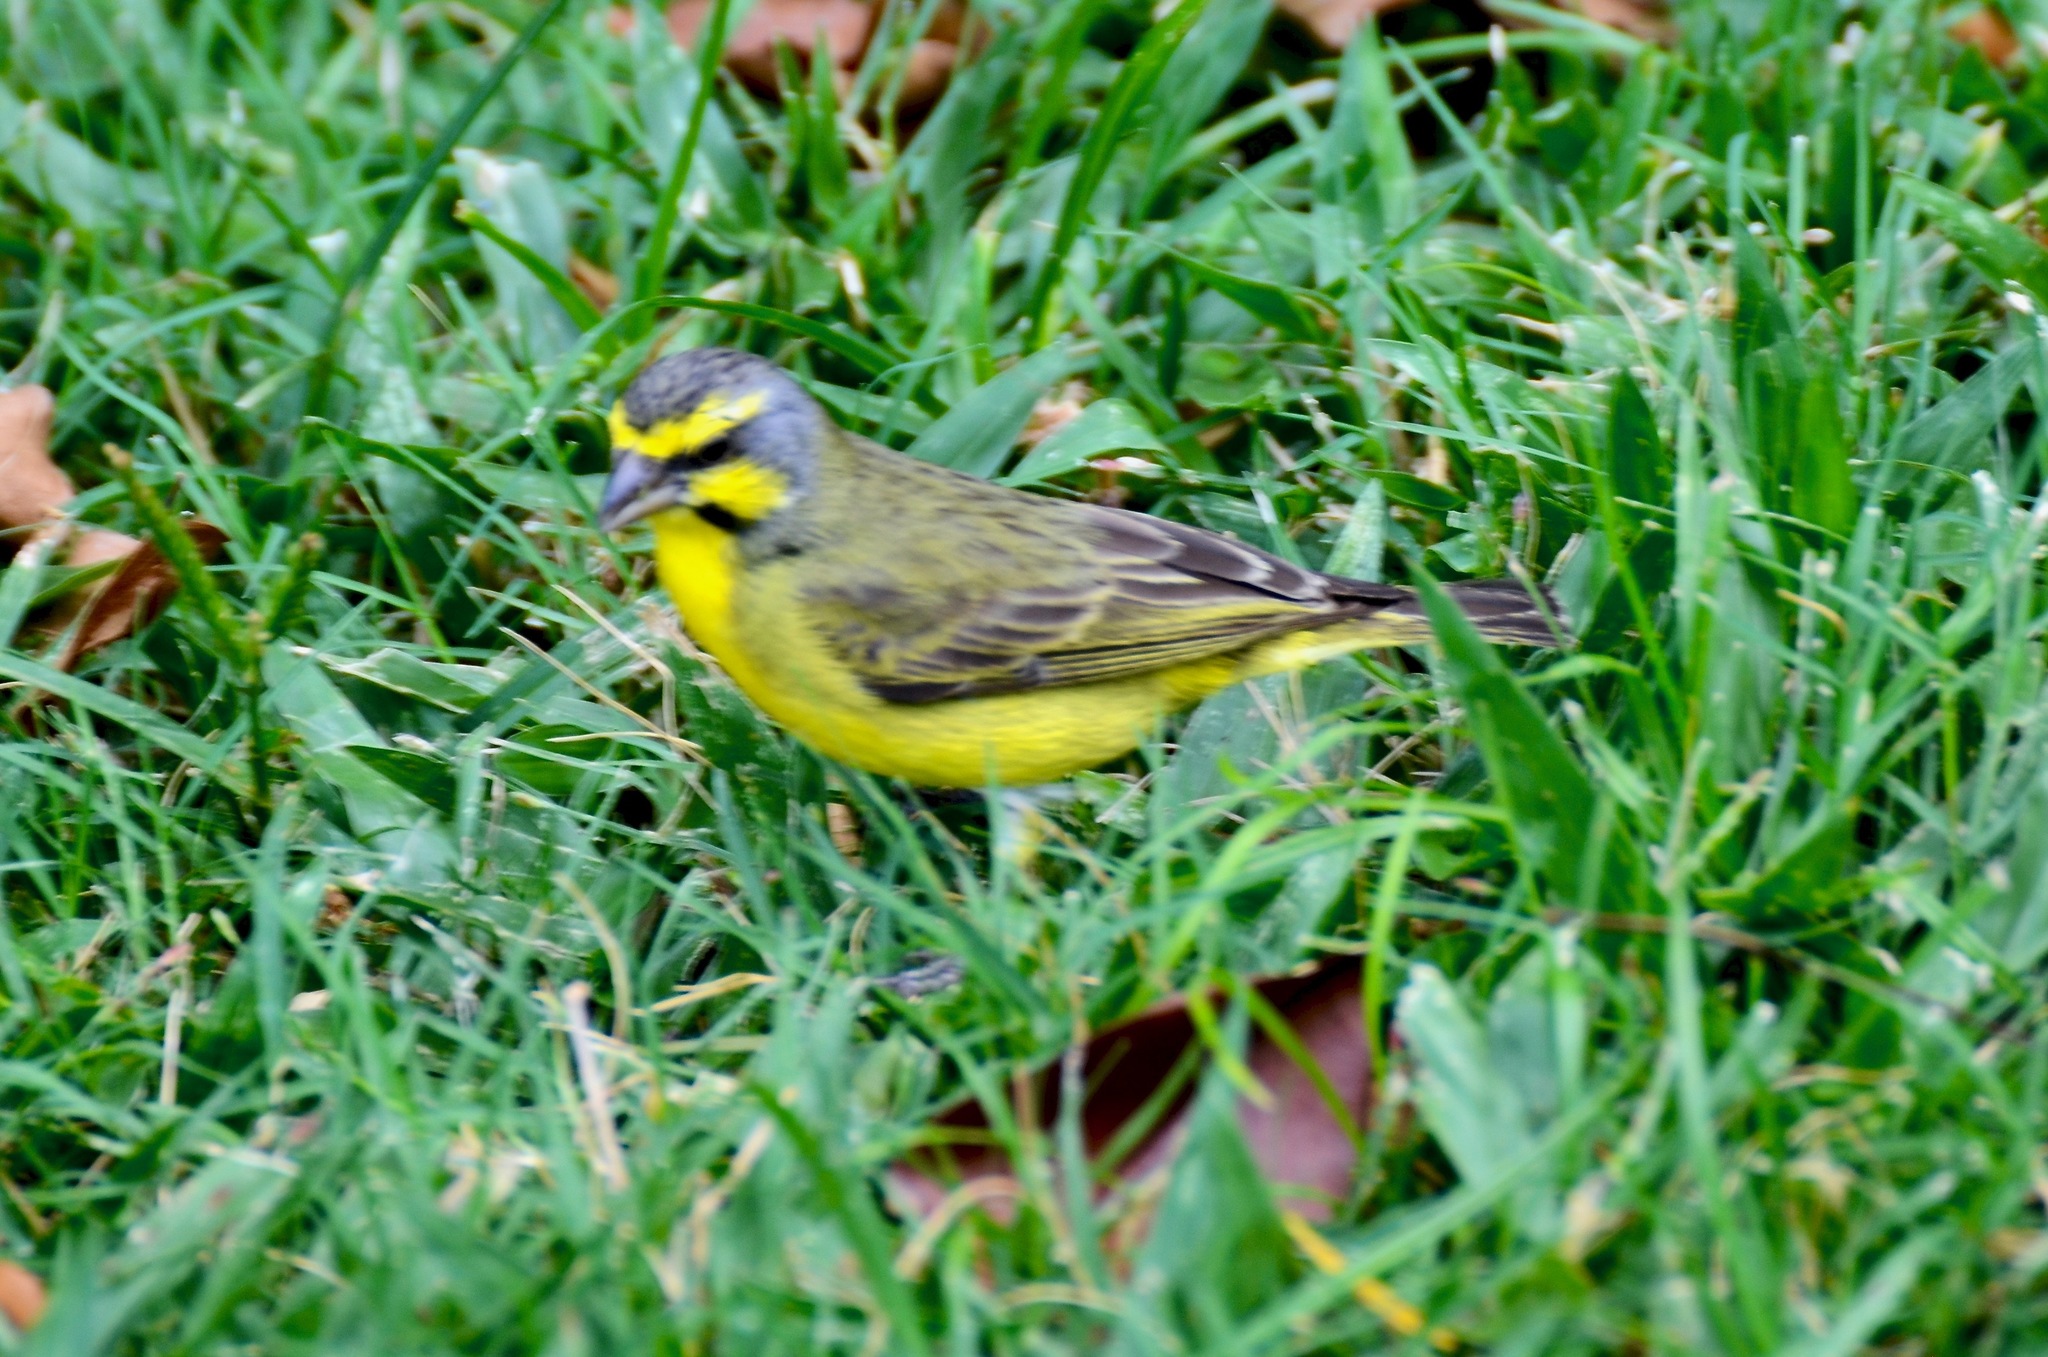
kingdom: Animalia
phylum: Chordata
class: Aves
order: Passeriformes
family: Fringillidae
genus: Crithagra
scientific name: Crithagra mozambica
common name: Yellow-fronted canary
